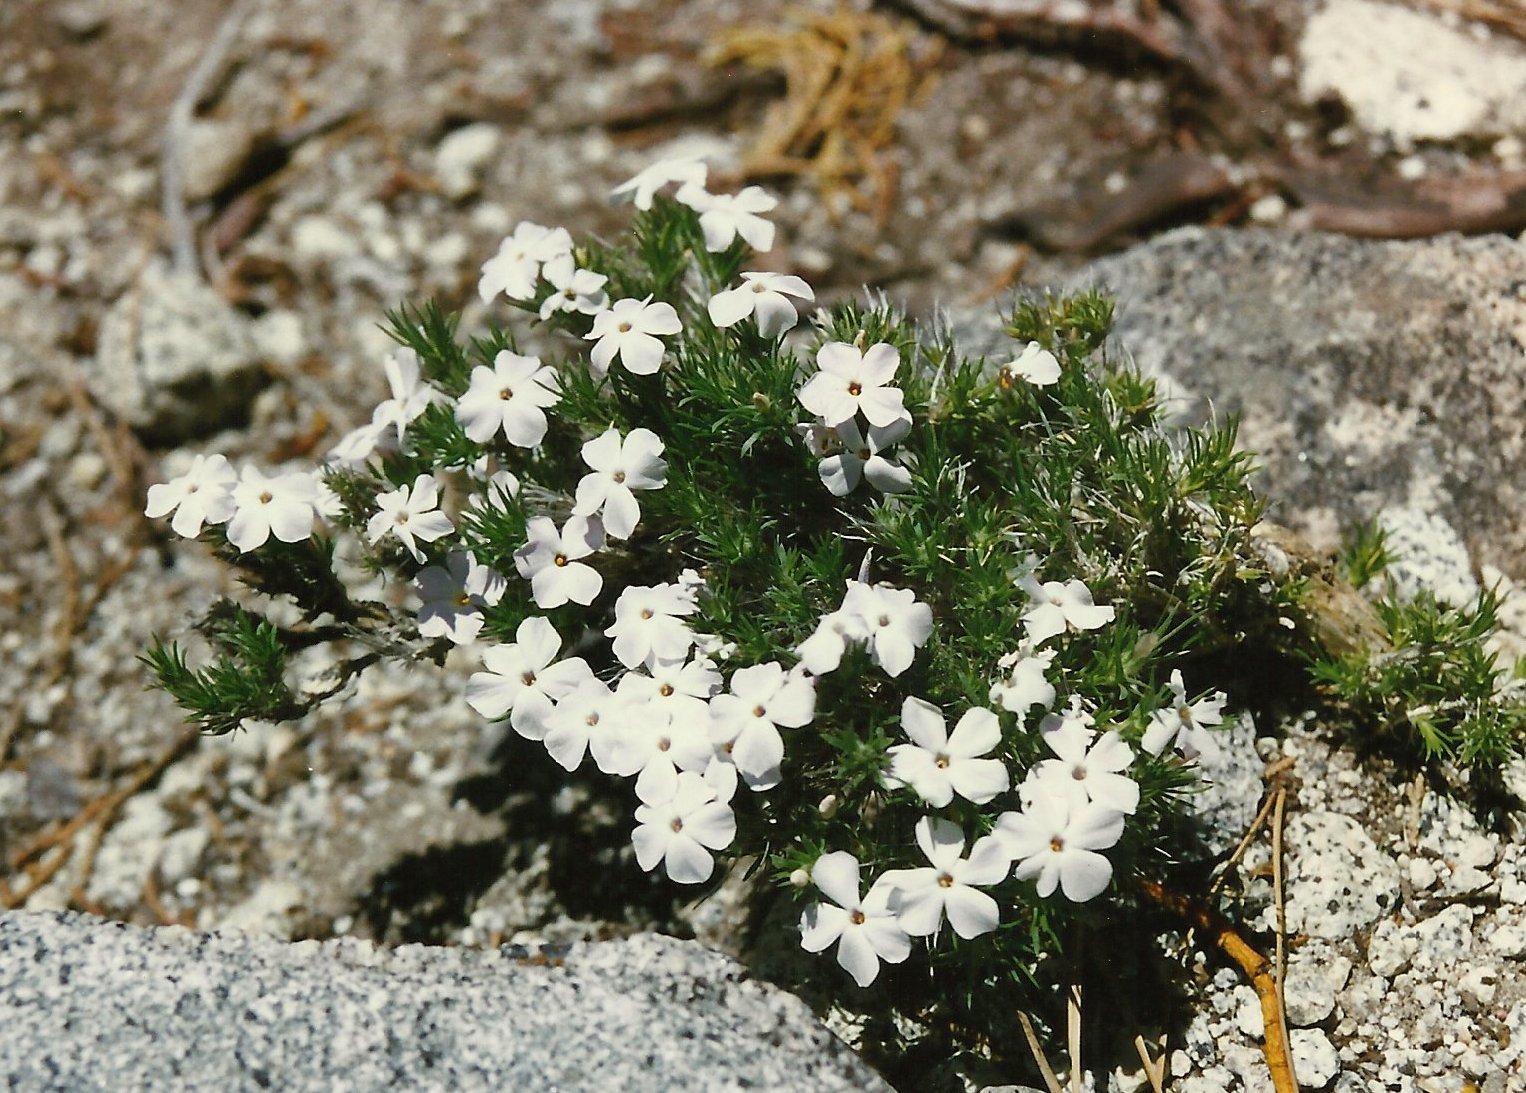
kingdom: Plantae
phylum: Tracheophyta
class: Magnoliopsida
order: Ericales
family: Polemoniaceae
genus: Phlox
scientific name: Phlox diffusa
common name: Mat phlox
